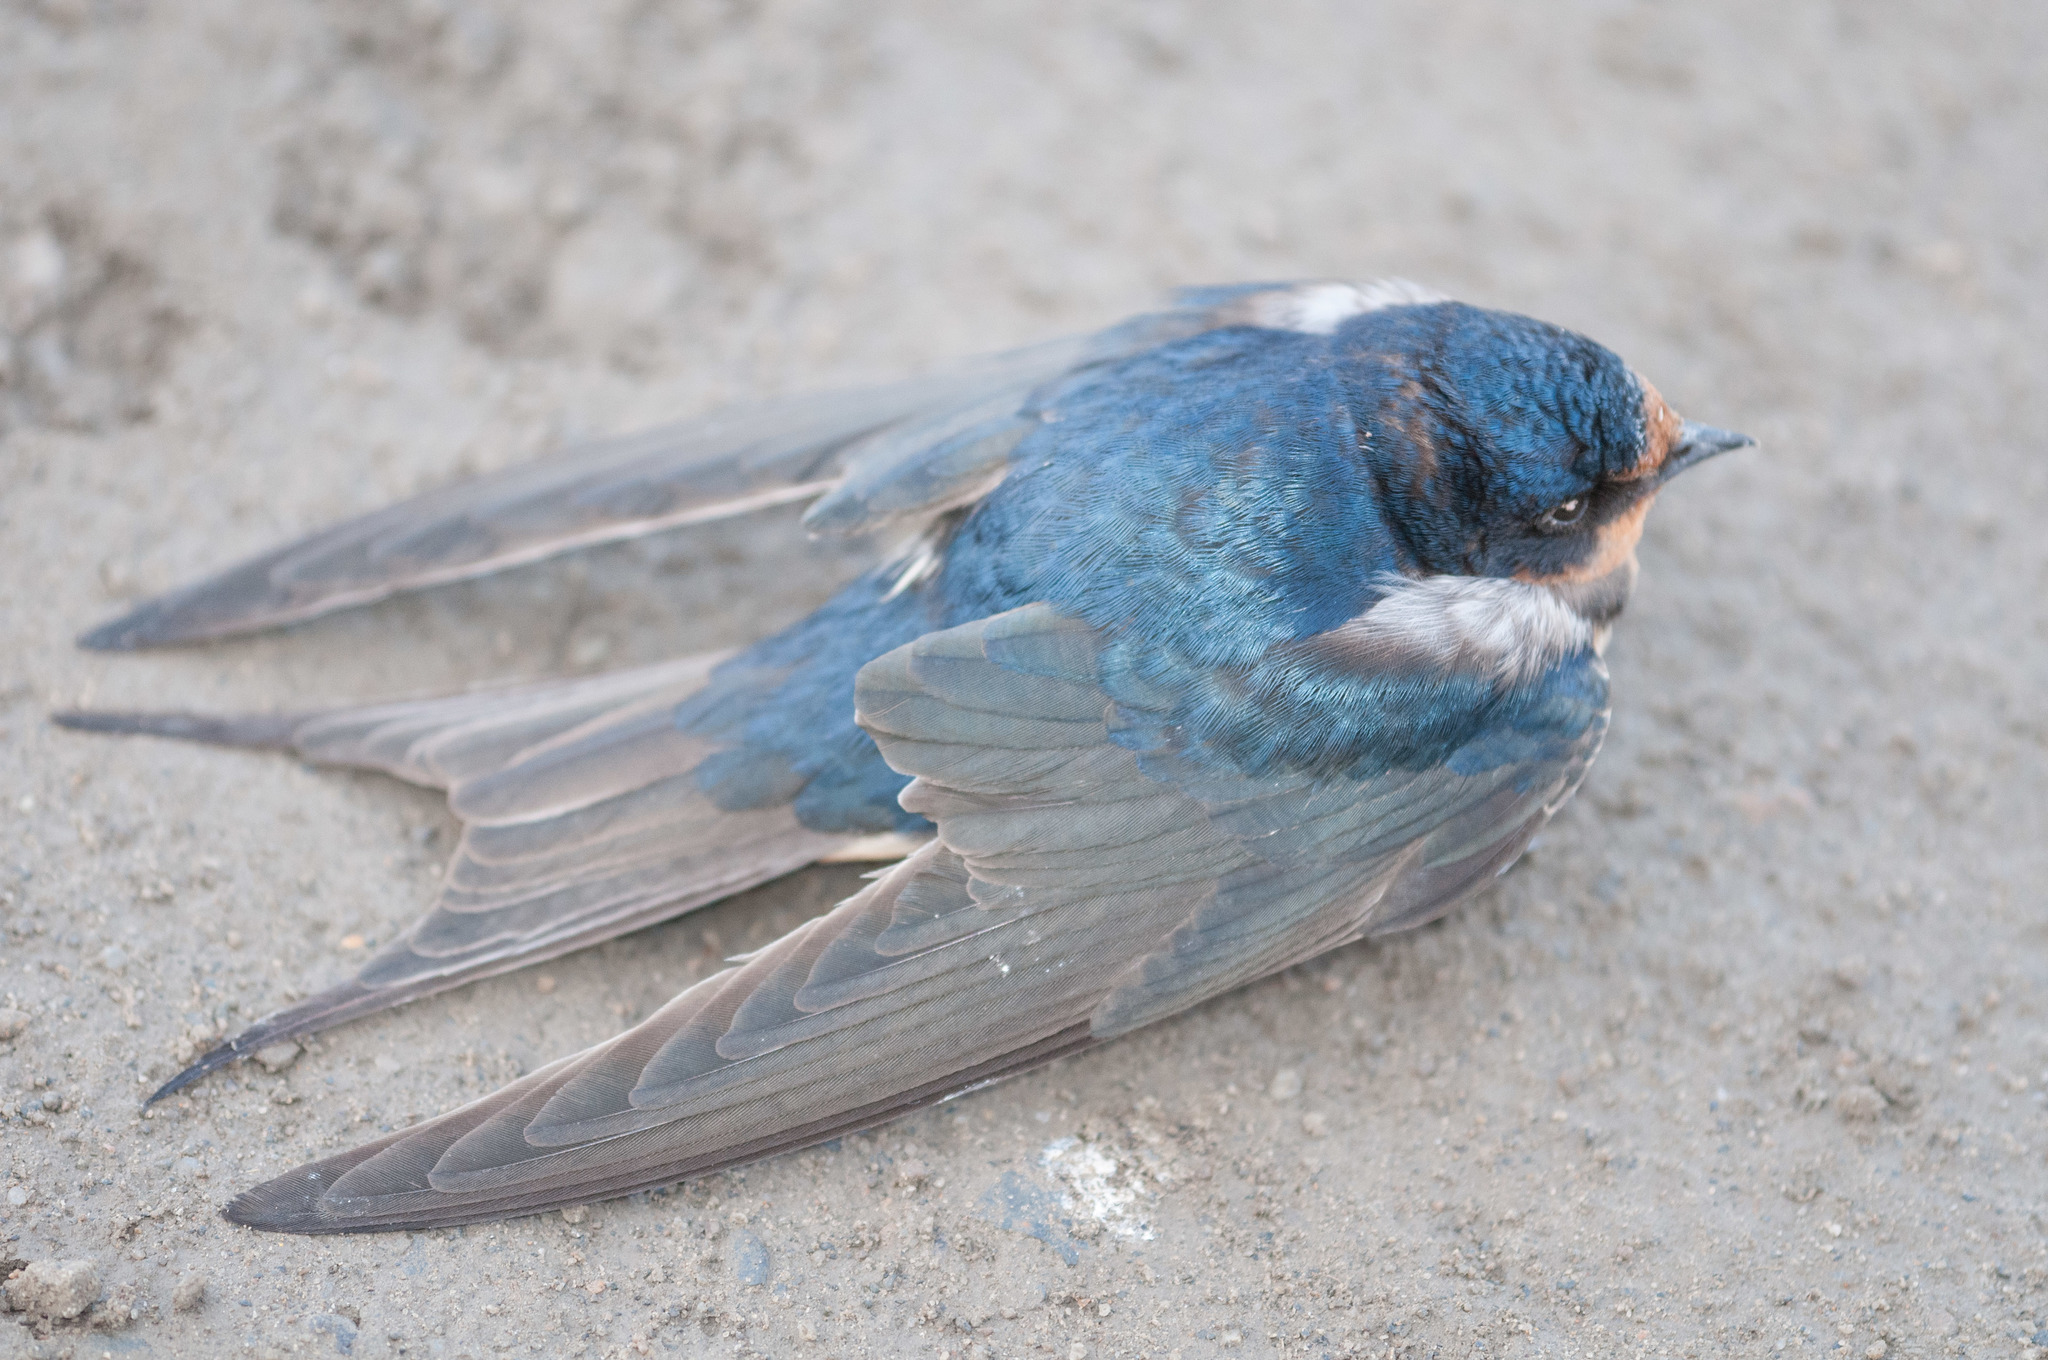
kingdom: Animalia
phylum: Chordata
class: Aves
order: Passeriformes
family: Hirundinidae
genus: Hirundo
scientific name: Hirundo rustica
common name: Barn swallow
